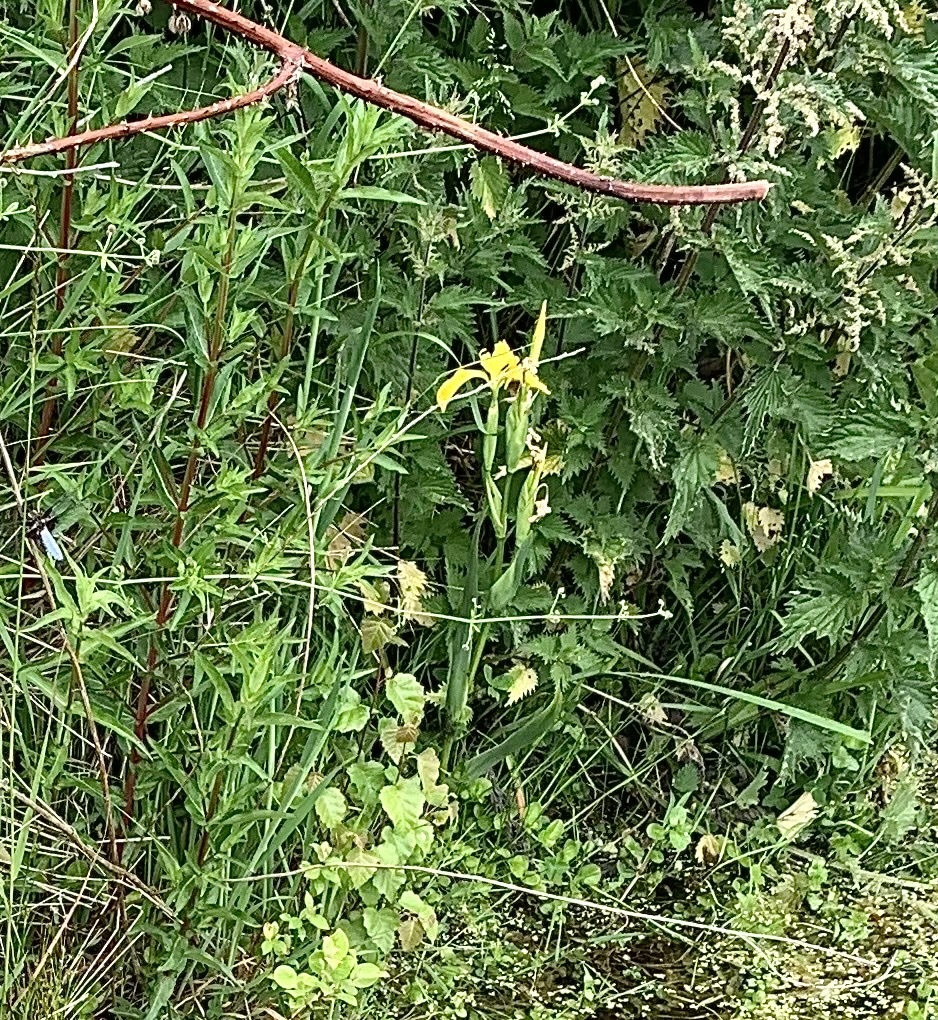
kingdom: Plantae
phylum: Tracheophyta
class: Liliopsida
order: Asparagales
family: Iridaceae
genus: Iris
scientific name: Iris pseudacorus
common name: Yellow flag
